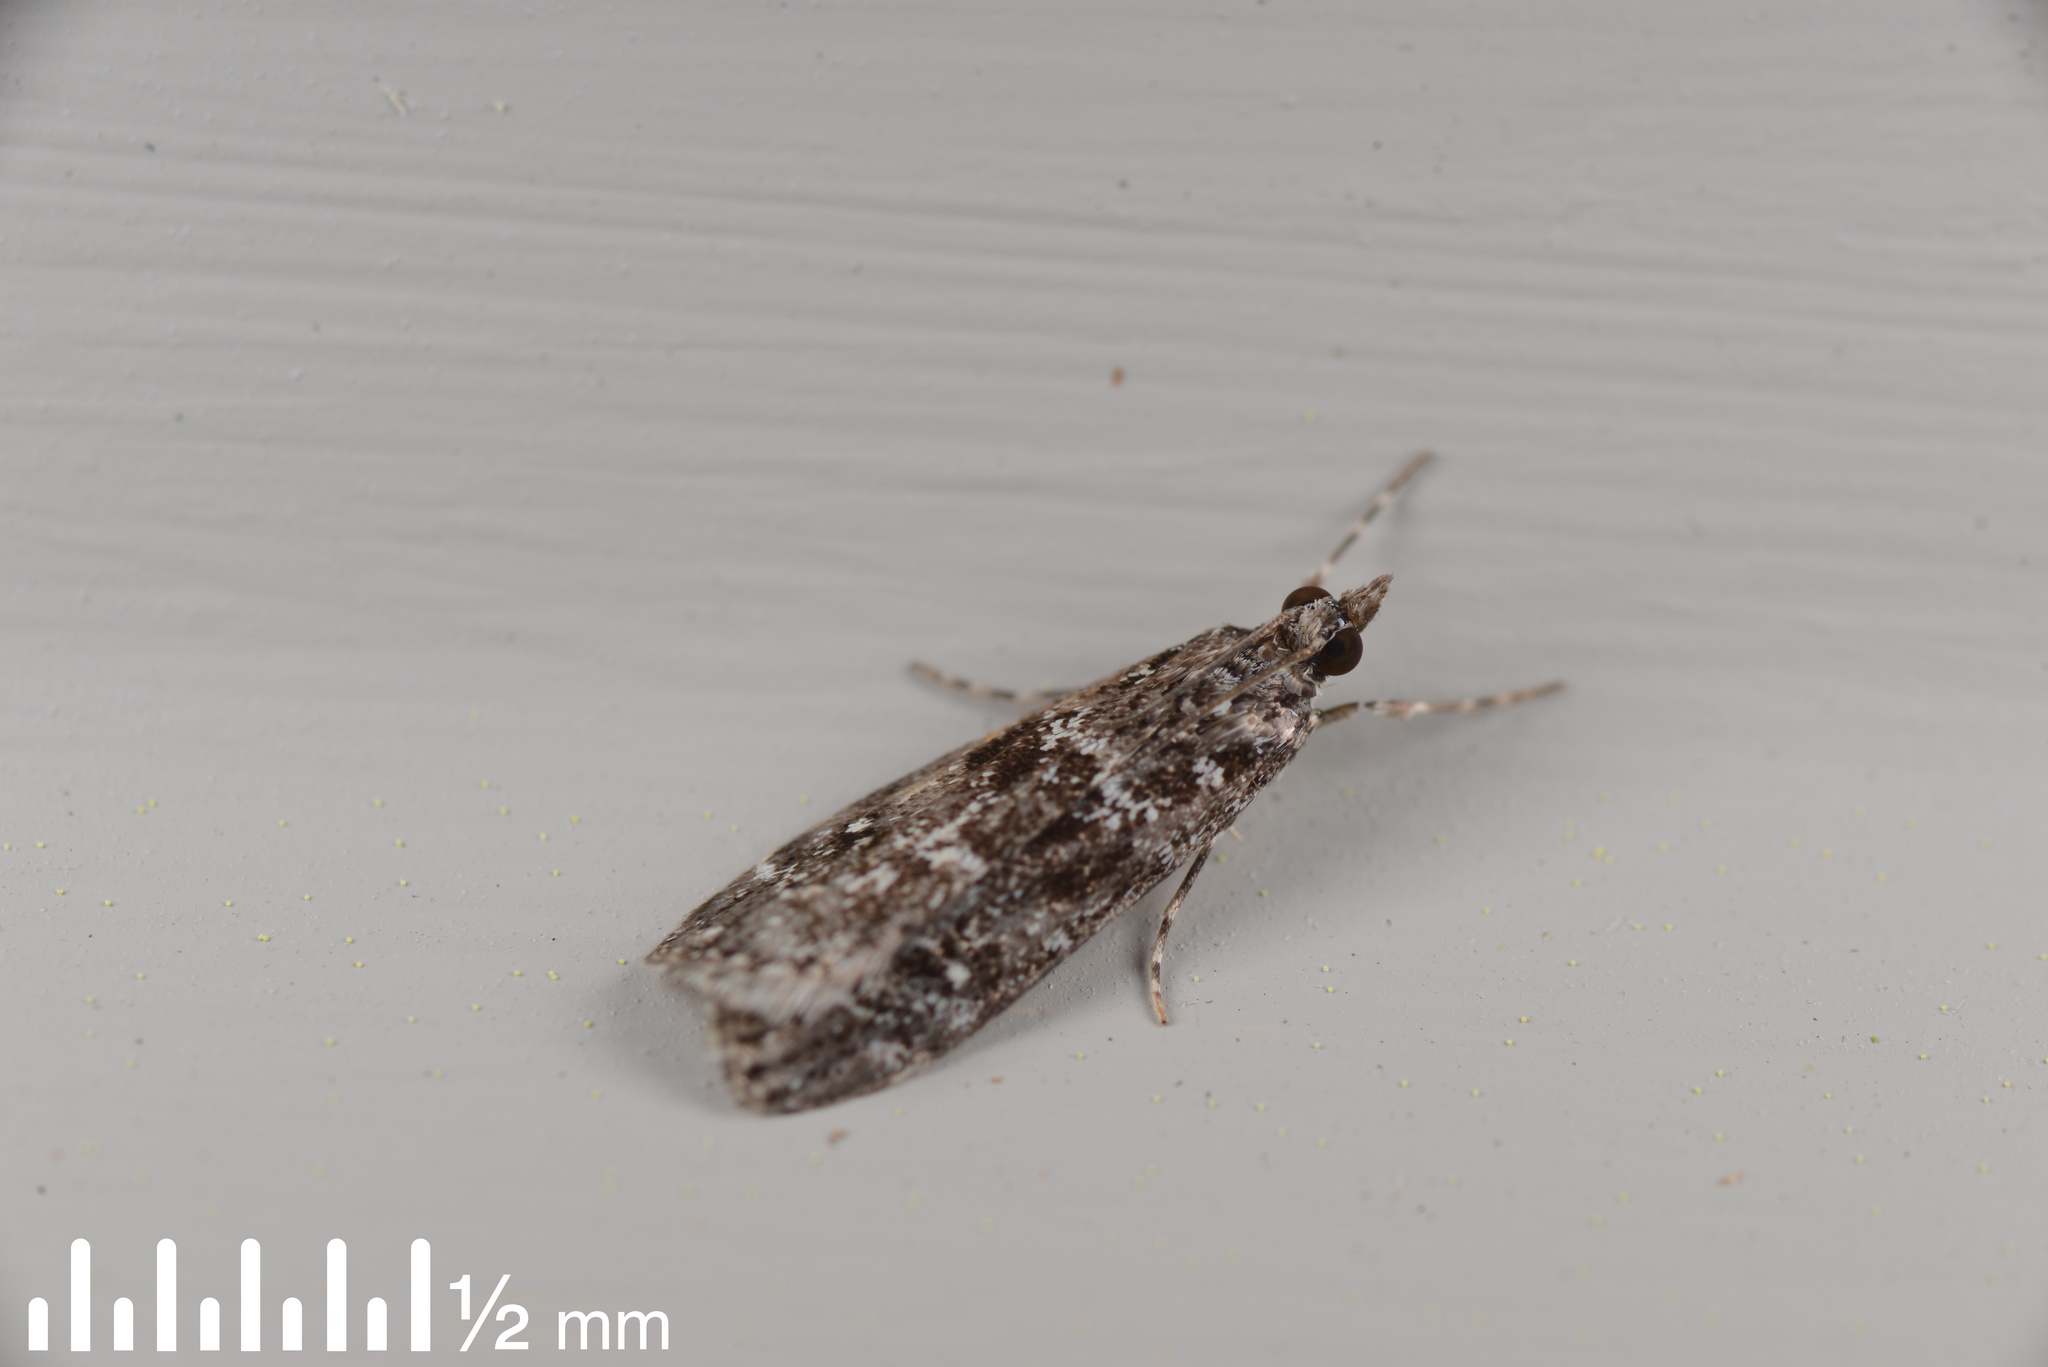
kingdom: Animalia
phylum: Arthropoda
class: Insecta
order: Lepidoptera
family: Crambidae
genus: Eudonia
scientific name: Eudonia philerga
